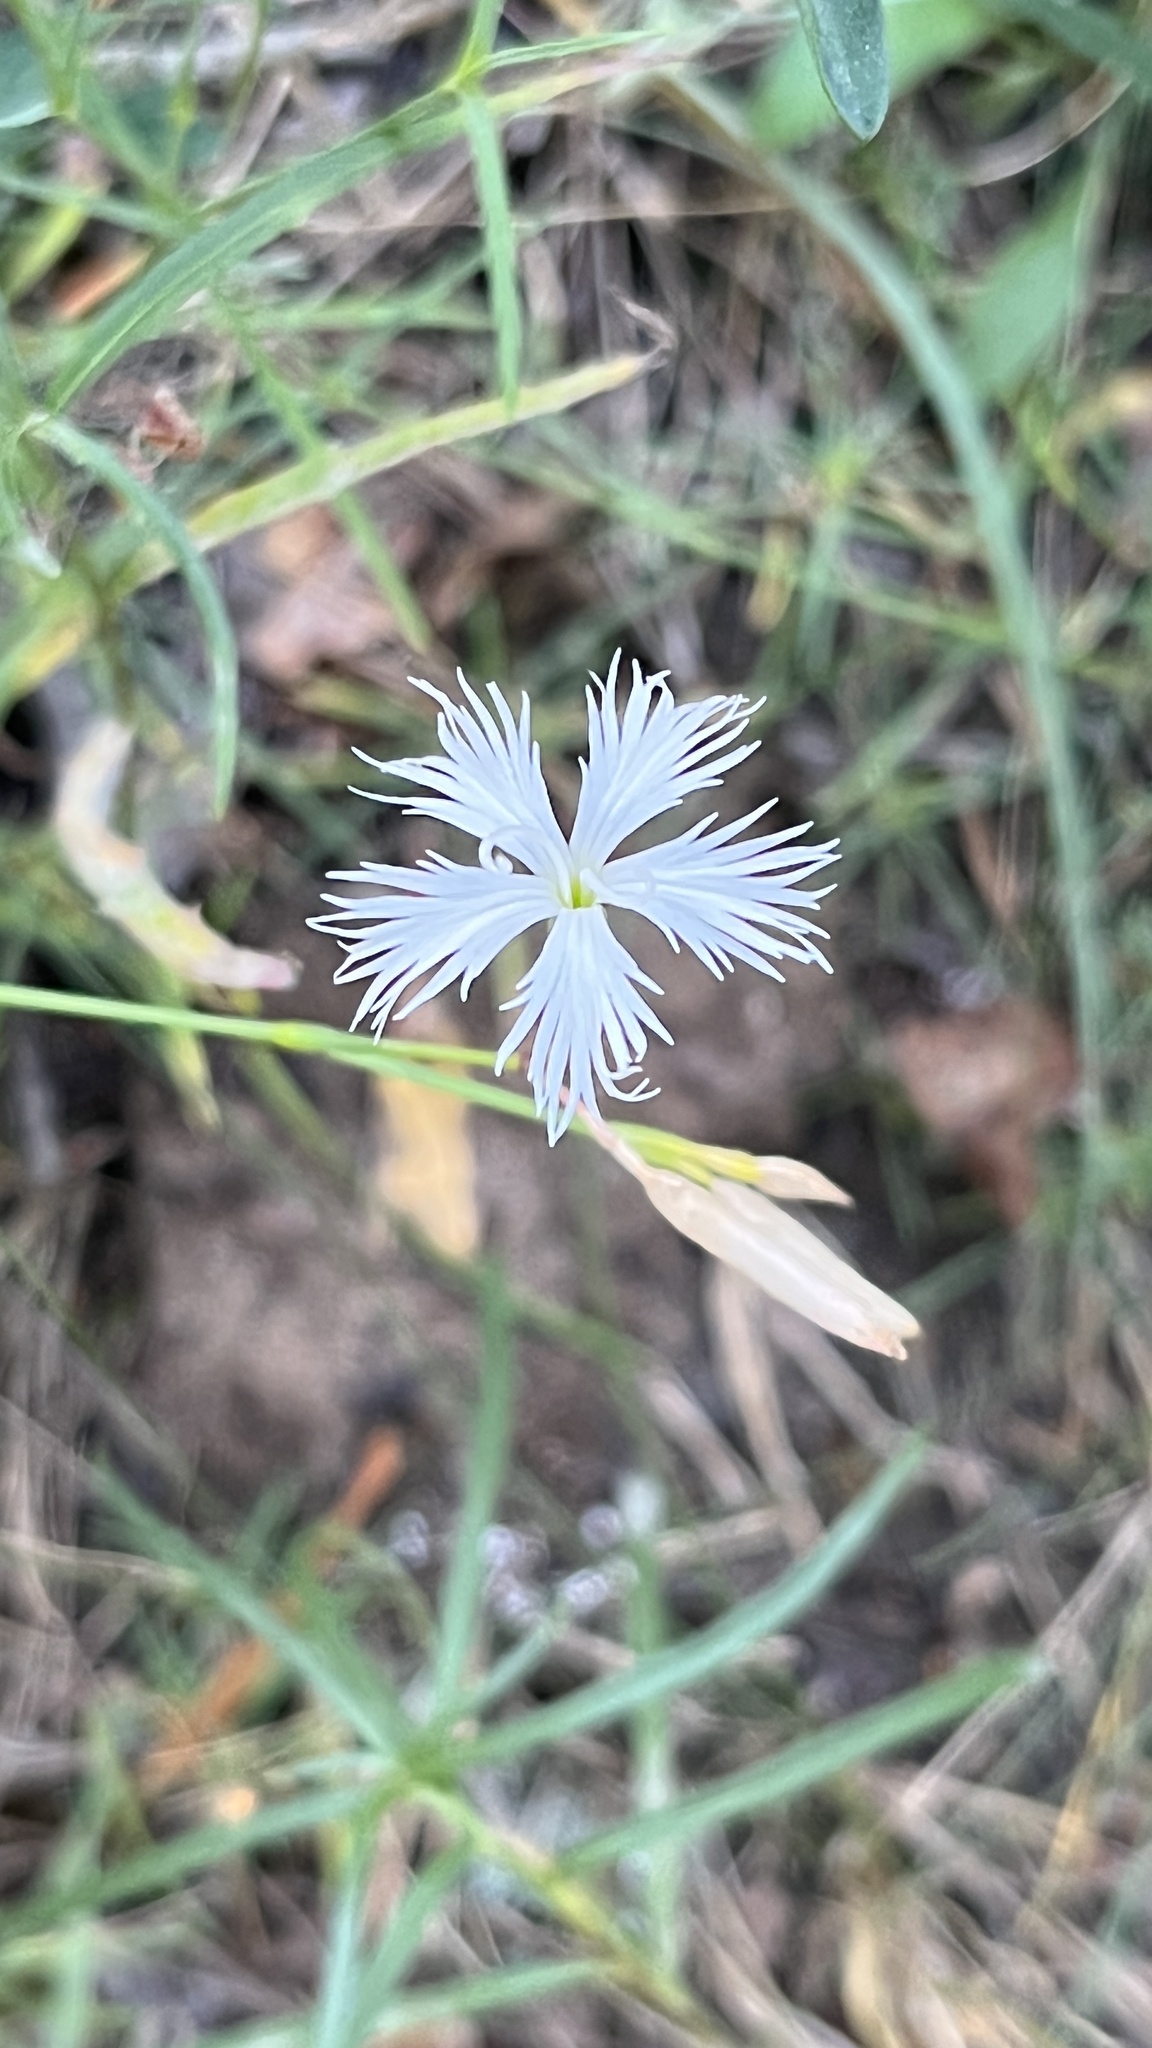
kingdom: Plantae
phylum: Tracheophyta
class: Magnoliopsida
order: Caryophyllales
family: Caryophyllaceae
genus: Dianthus
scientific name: Dianthus arenarius
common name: Stone pink
